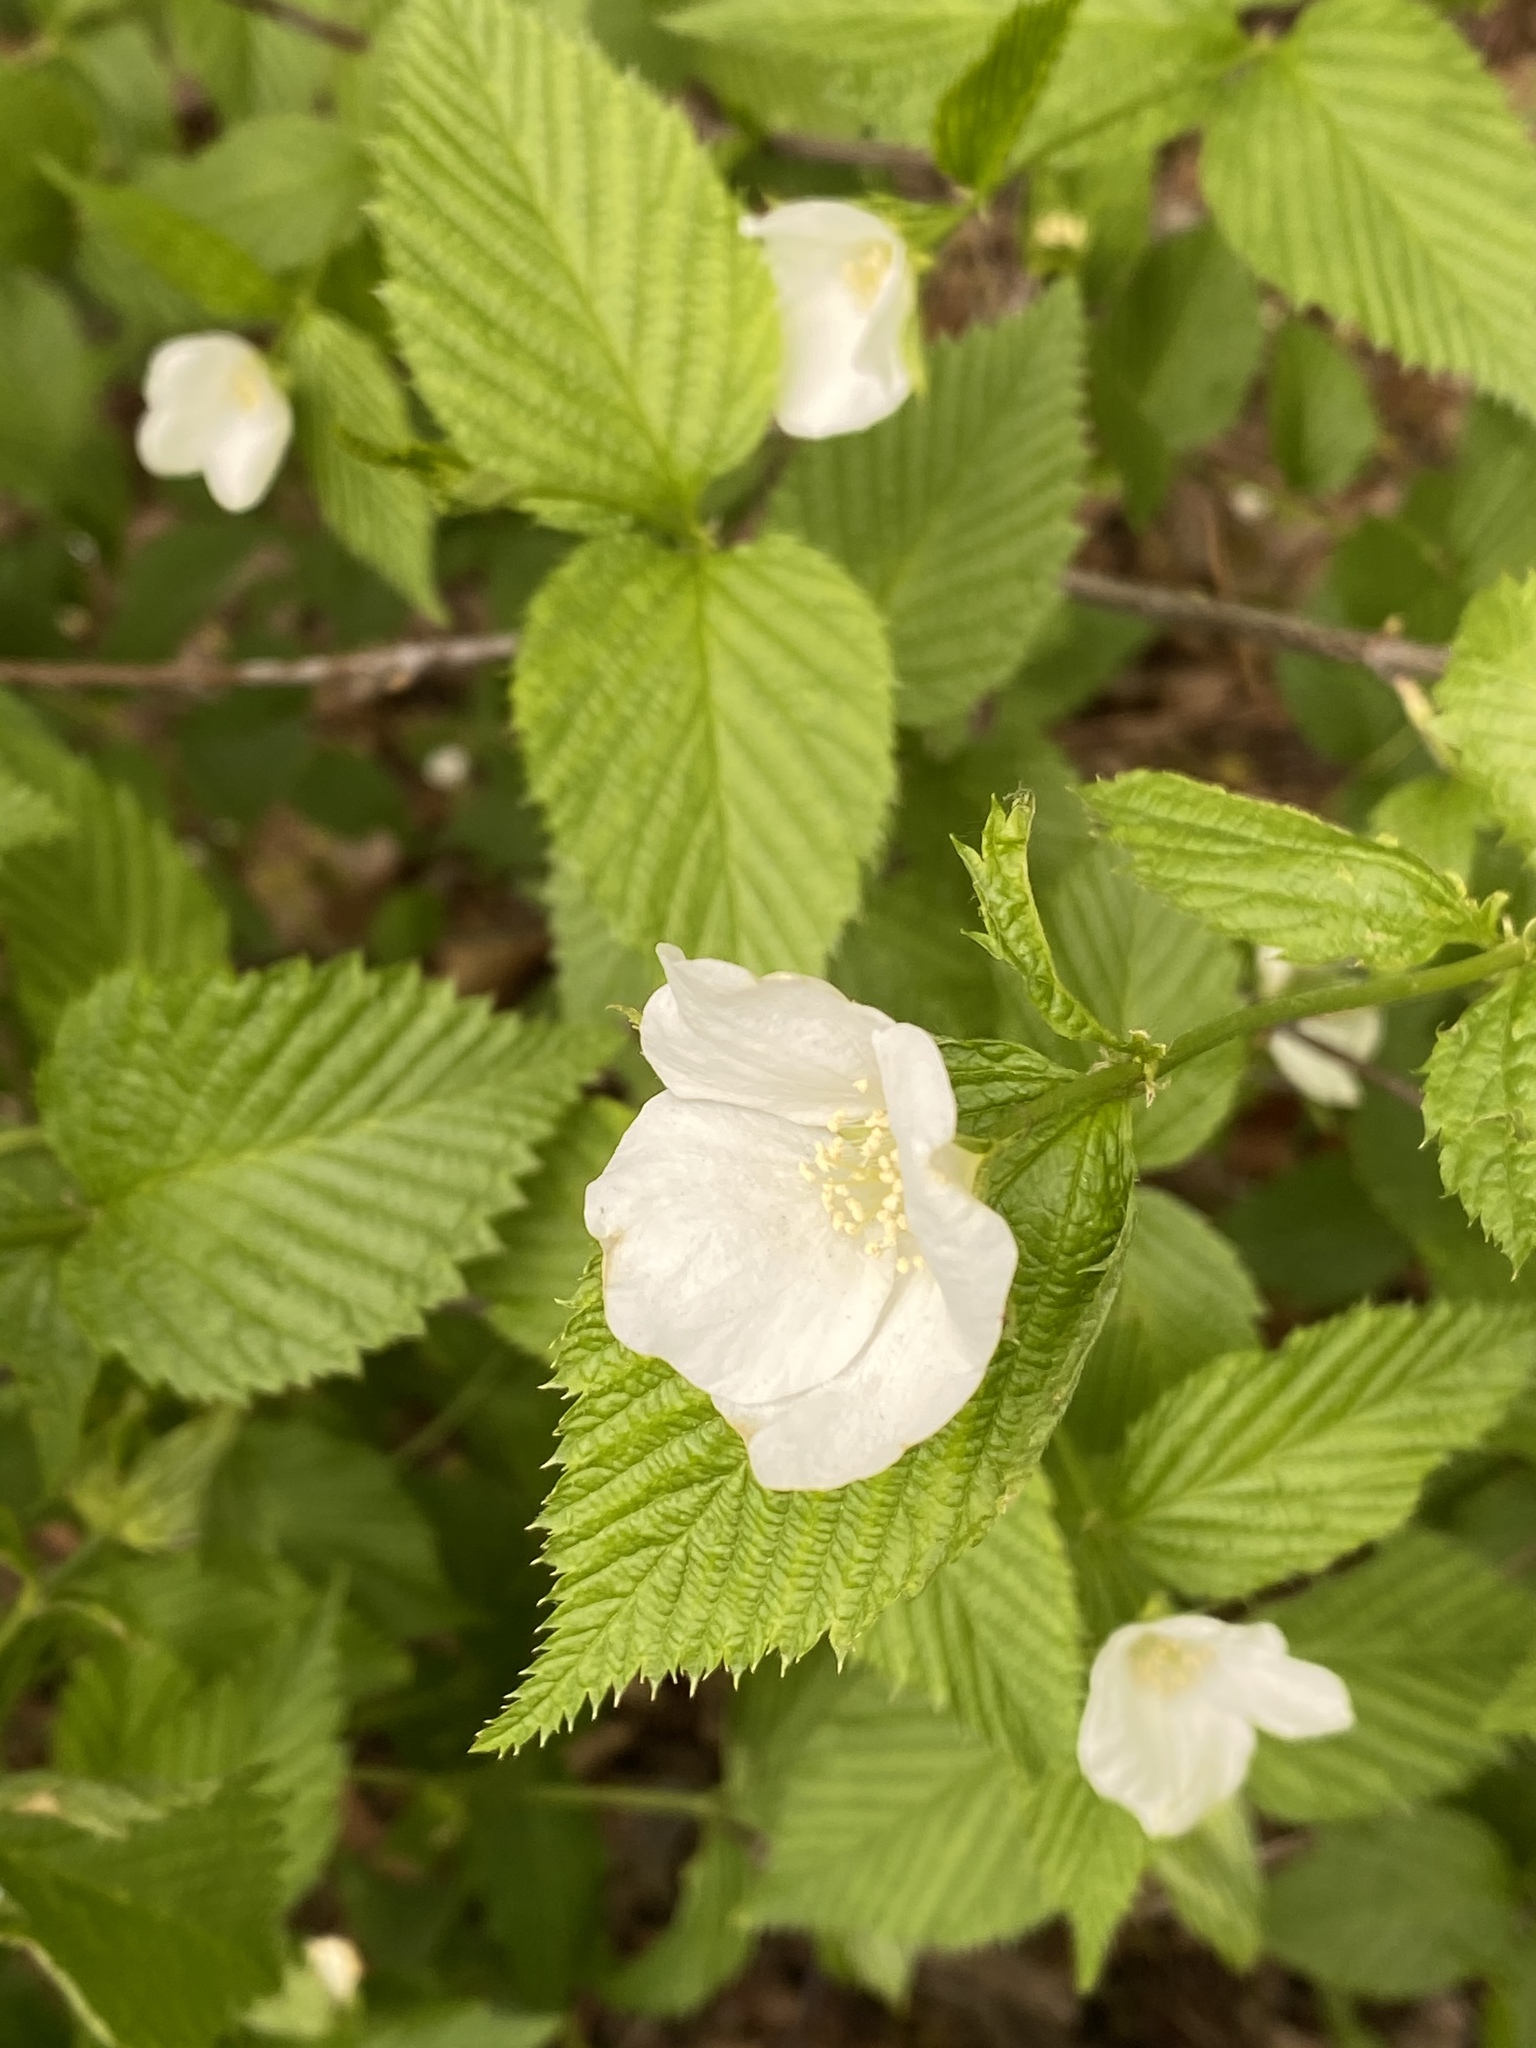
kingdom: Plantae
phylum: Tracheophyta
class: Magnoliopsida
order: Rosales
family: Rosaceae
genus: Rhodotypos
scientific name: Rhodotypos scandens
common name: Jetbead
